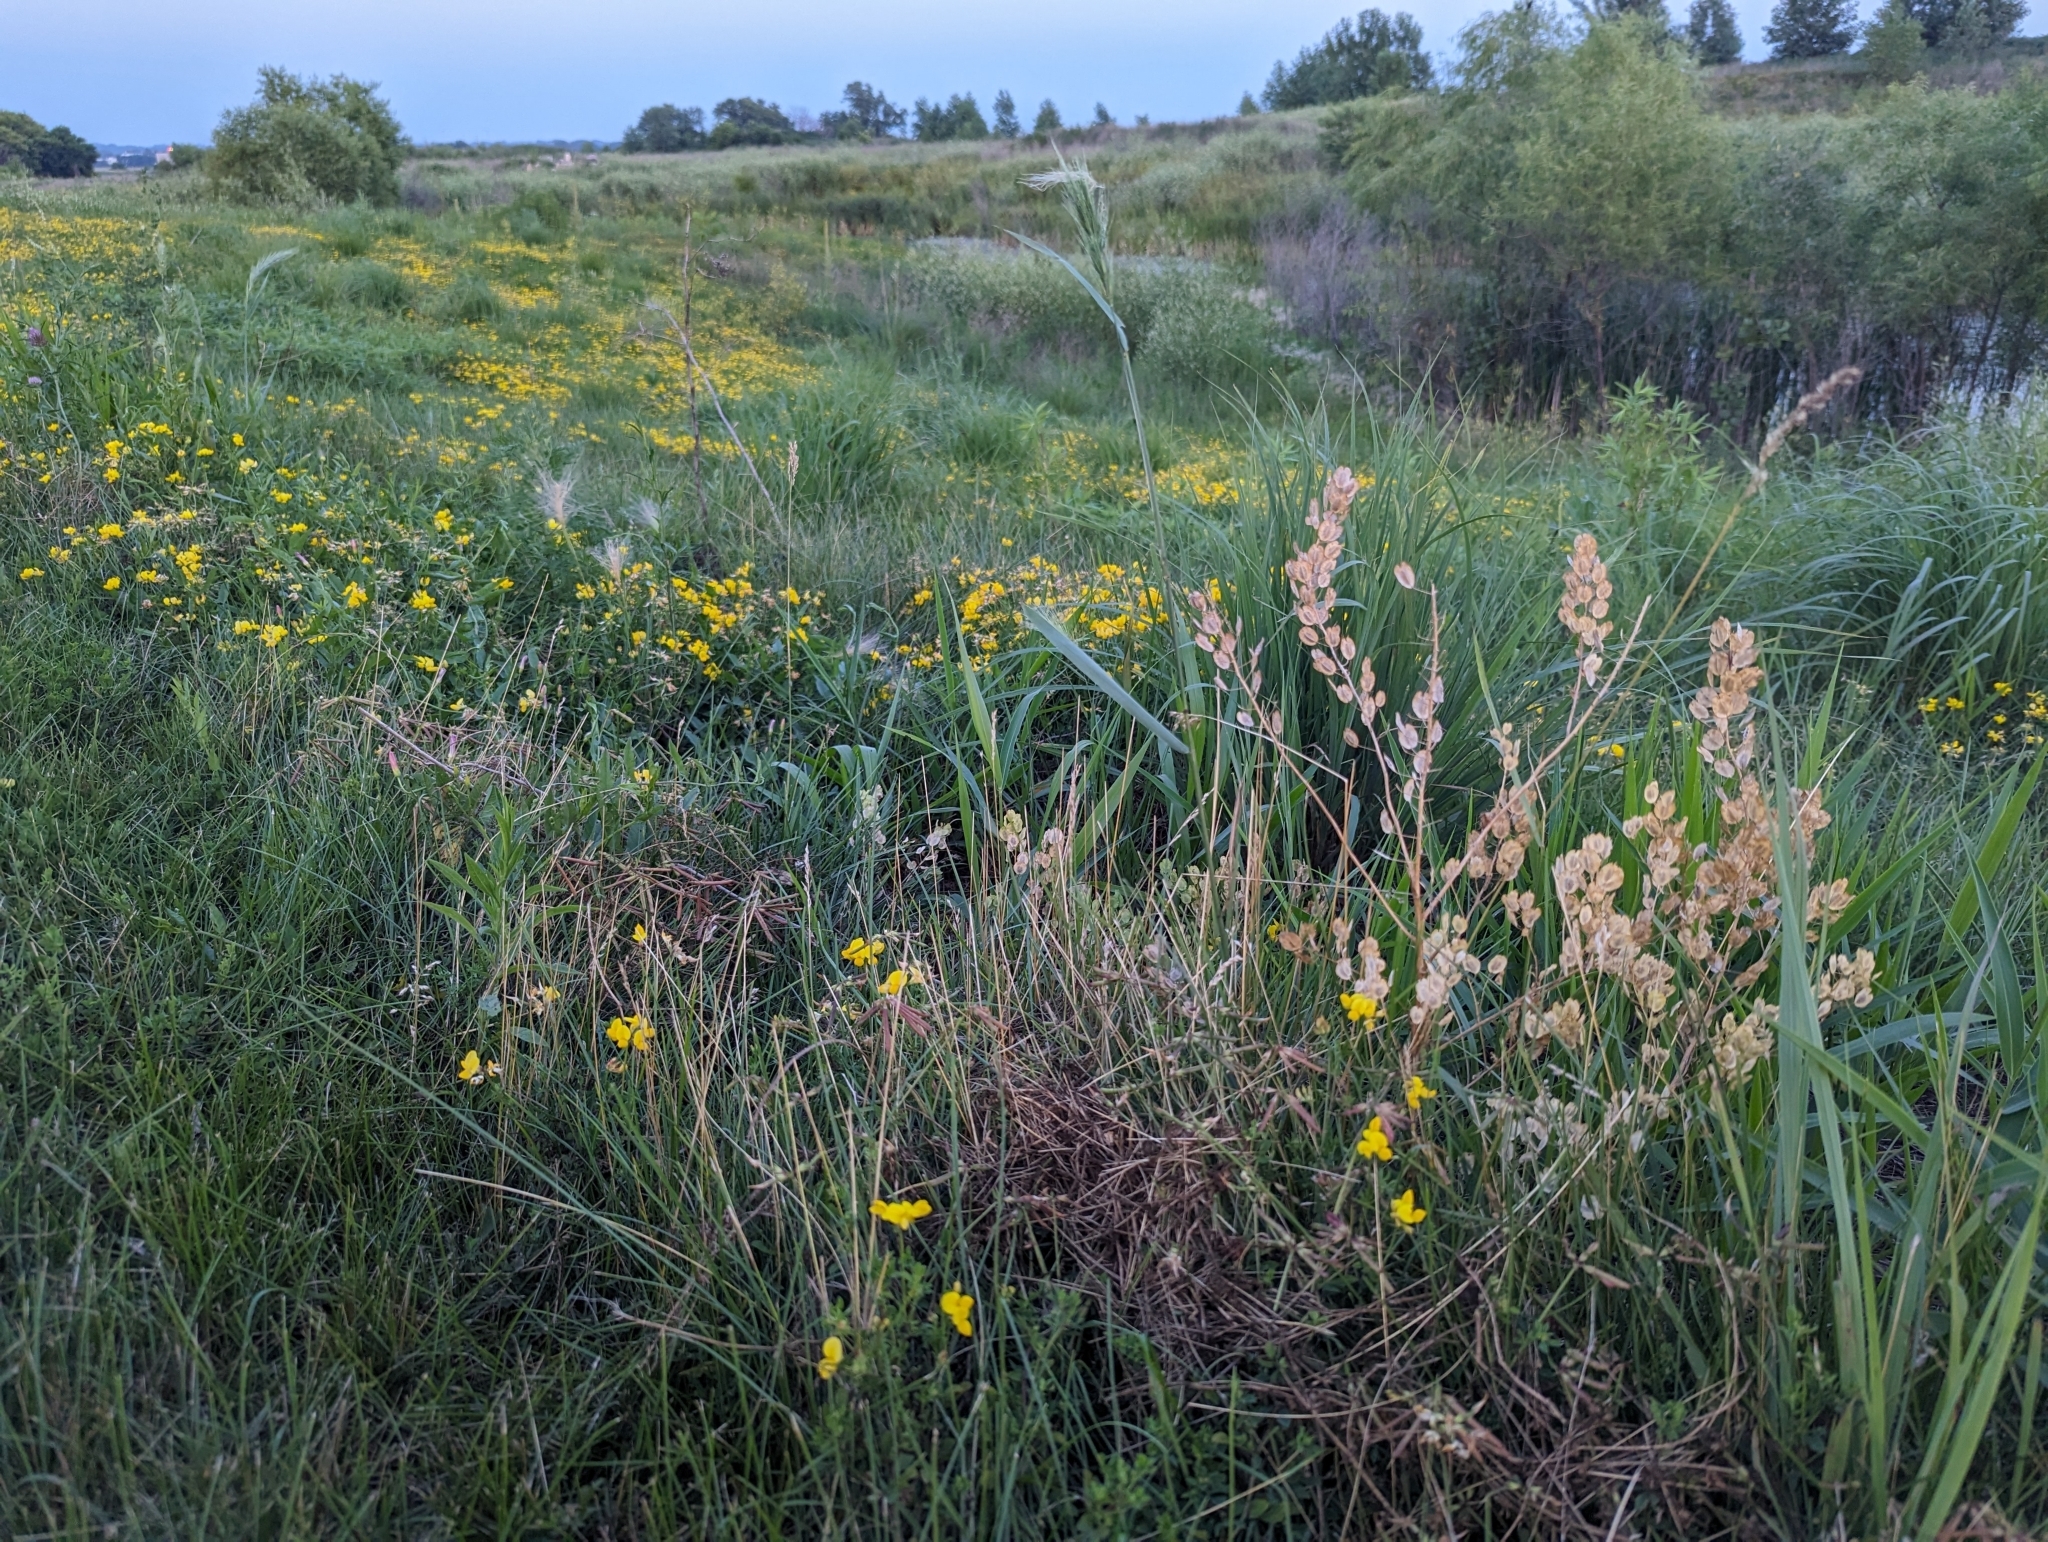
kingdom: Plantae
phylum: Tracheophyta
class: Magnoliopsida
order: Brassicales
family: Brassicaceae
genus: Thlaspi
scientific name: Thlaspi arvense
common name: Field pennycress
